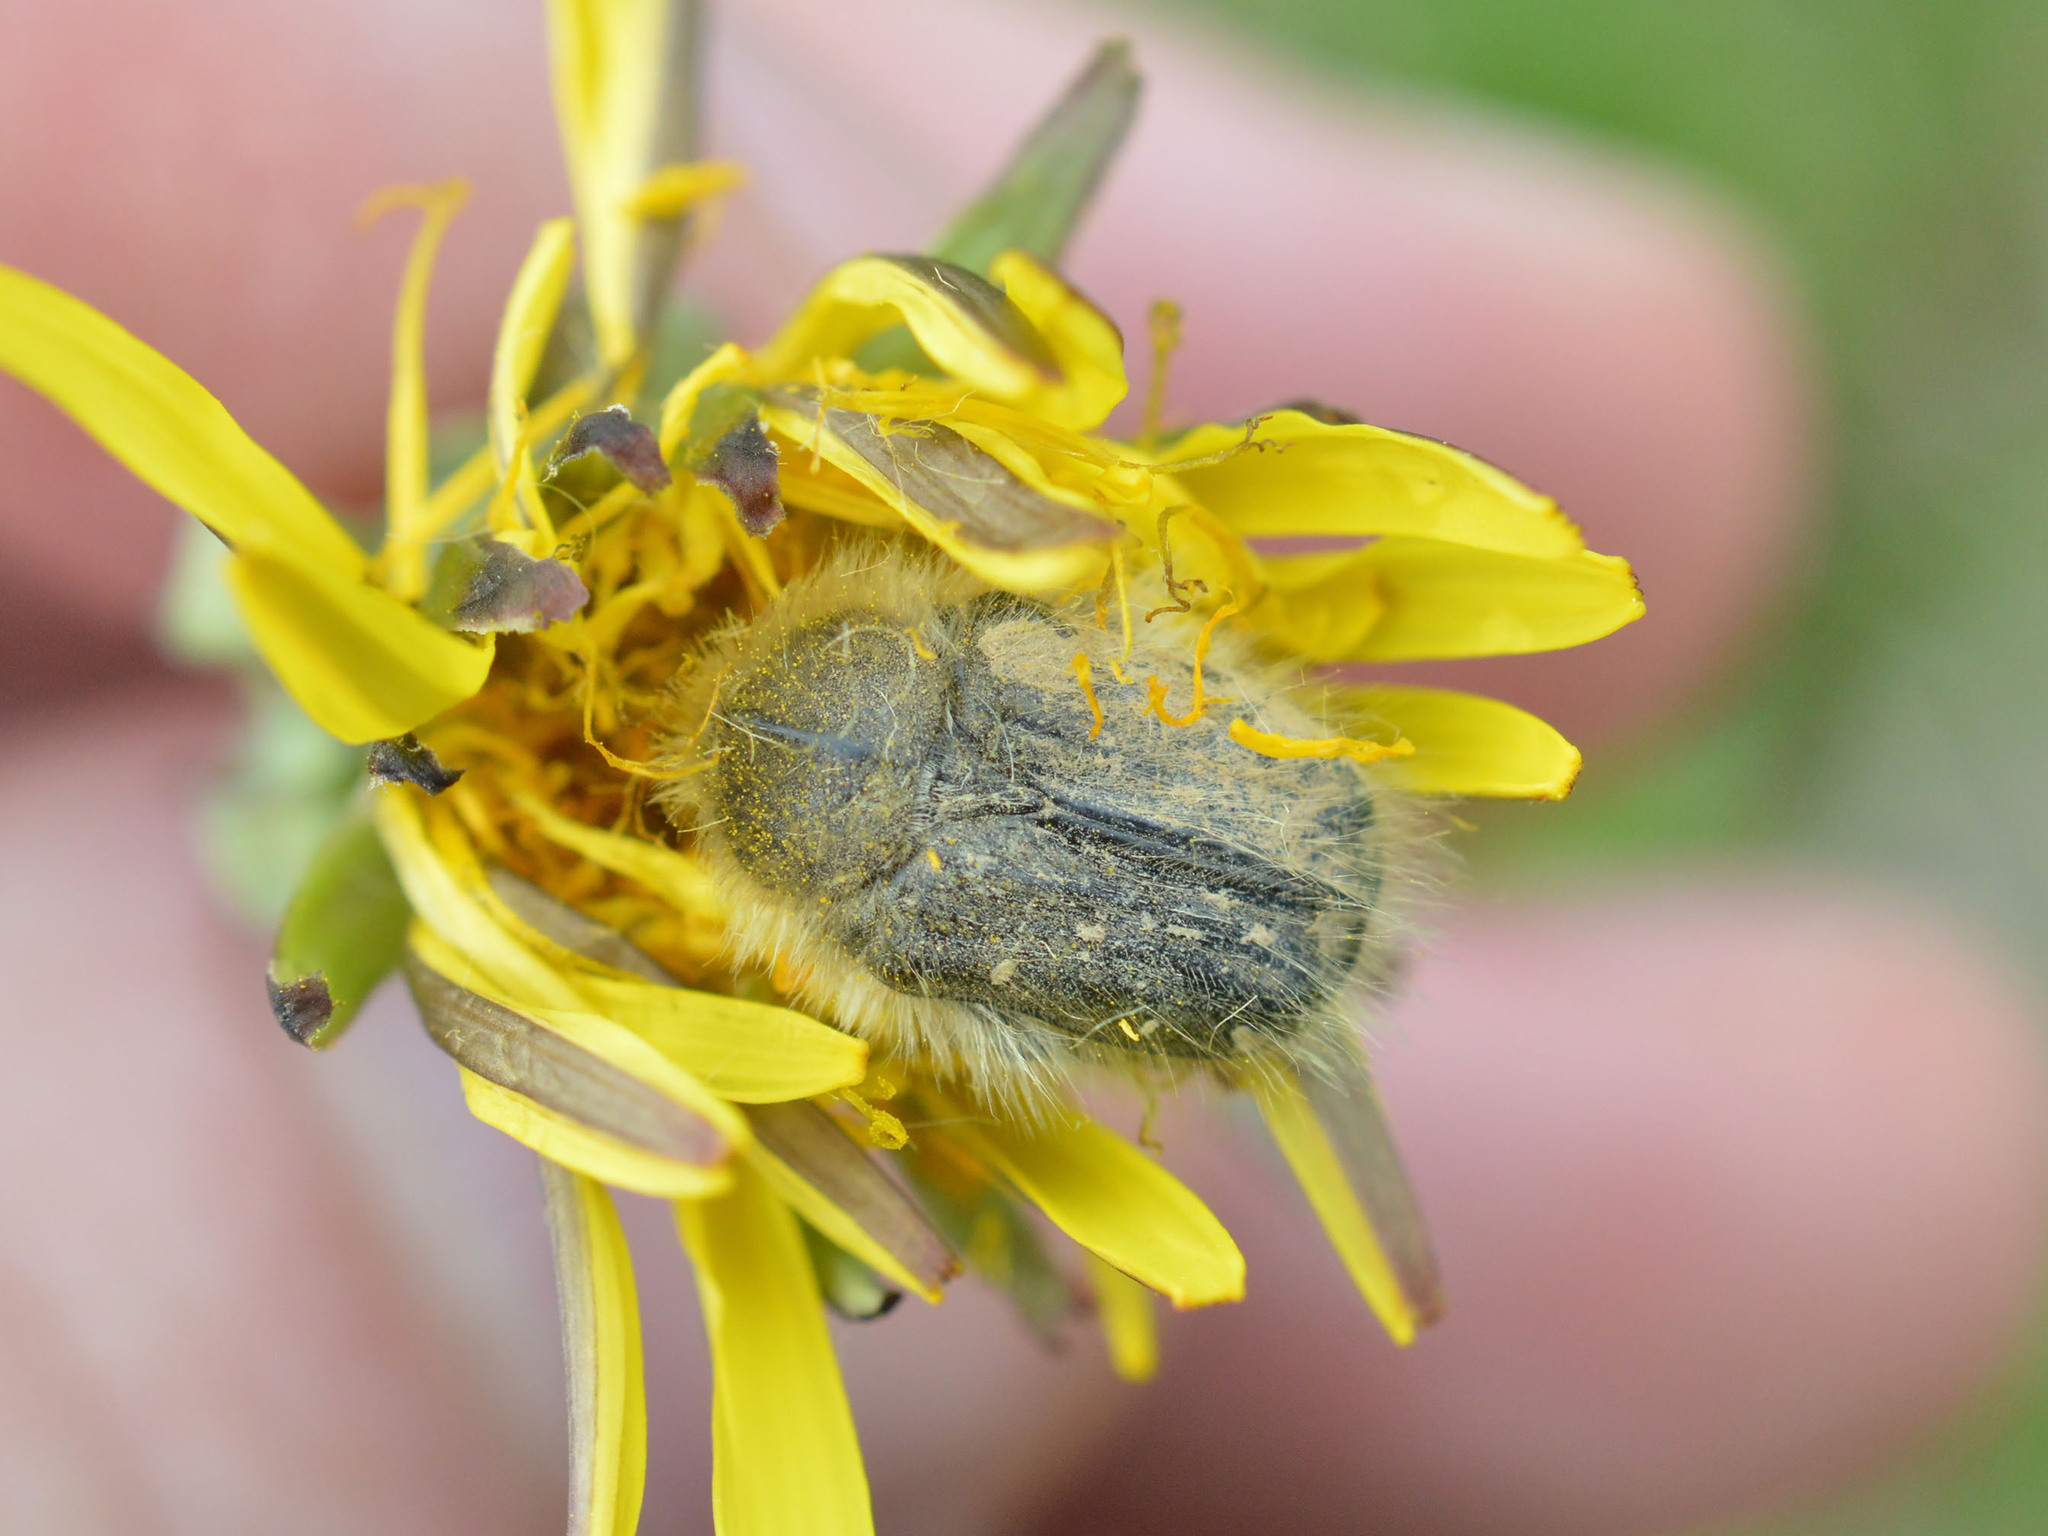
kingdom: Animalia
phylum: Arthropoda
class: Insecta
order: Coleoptera
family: Scarabaeidae
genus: Tropinota
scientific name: Tropinota hirta
